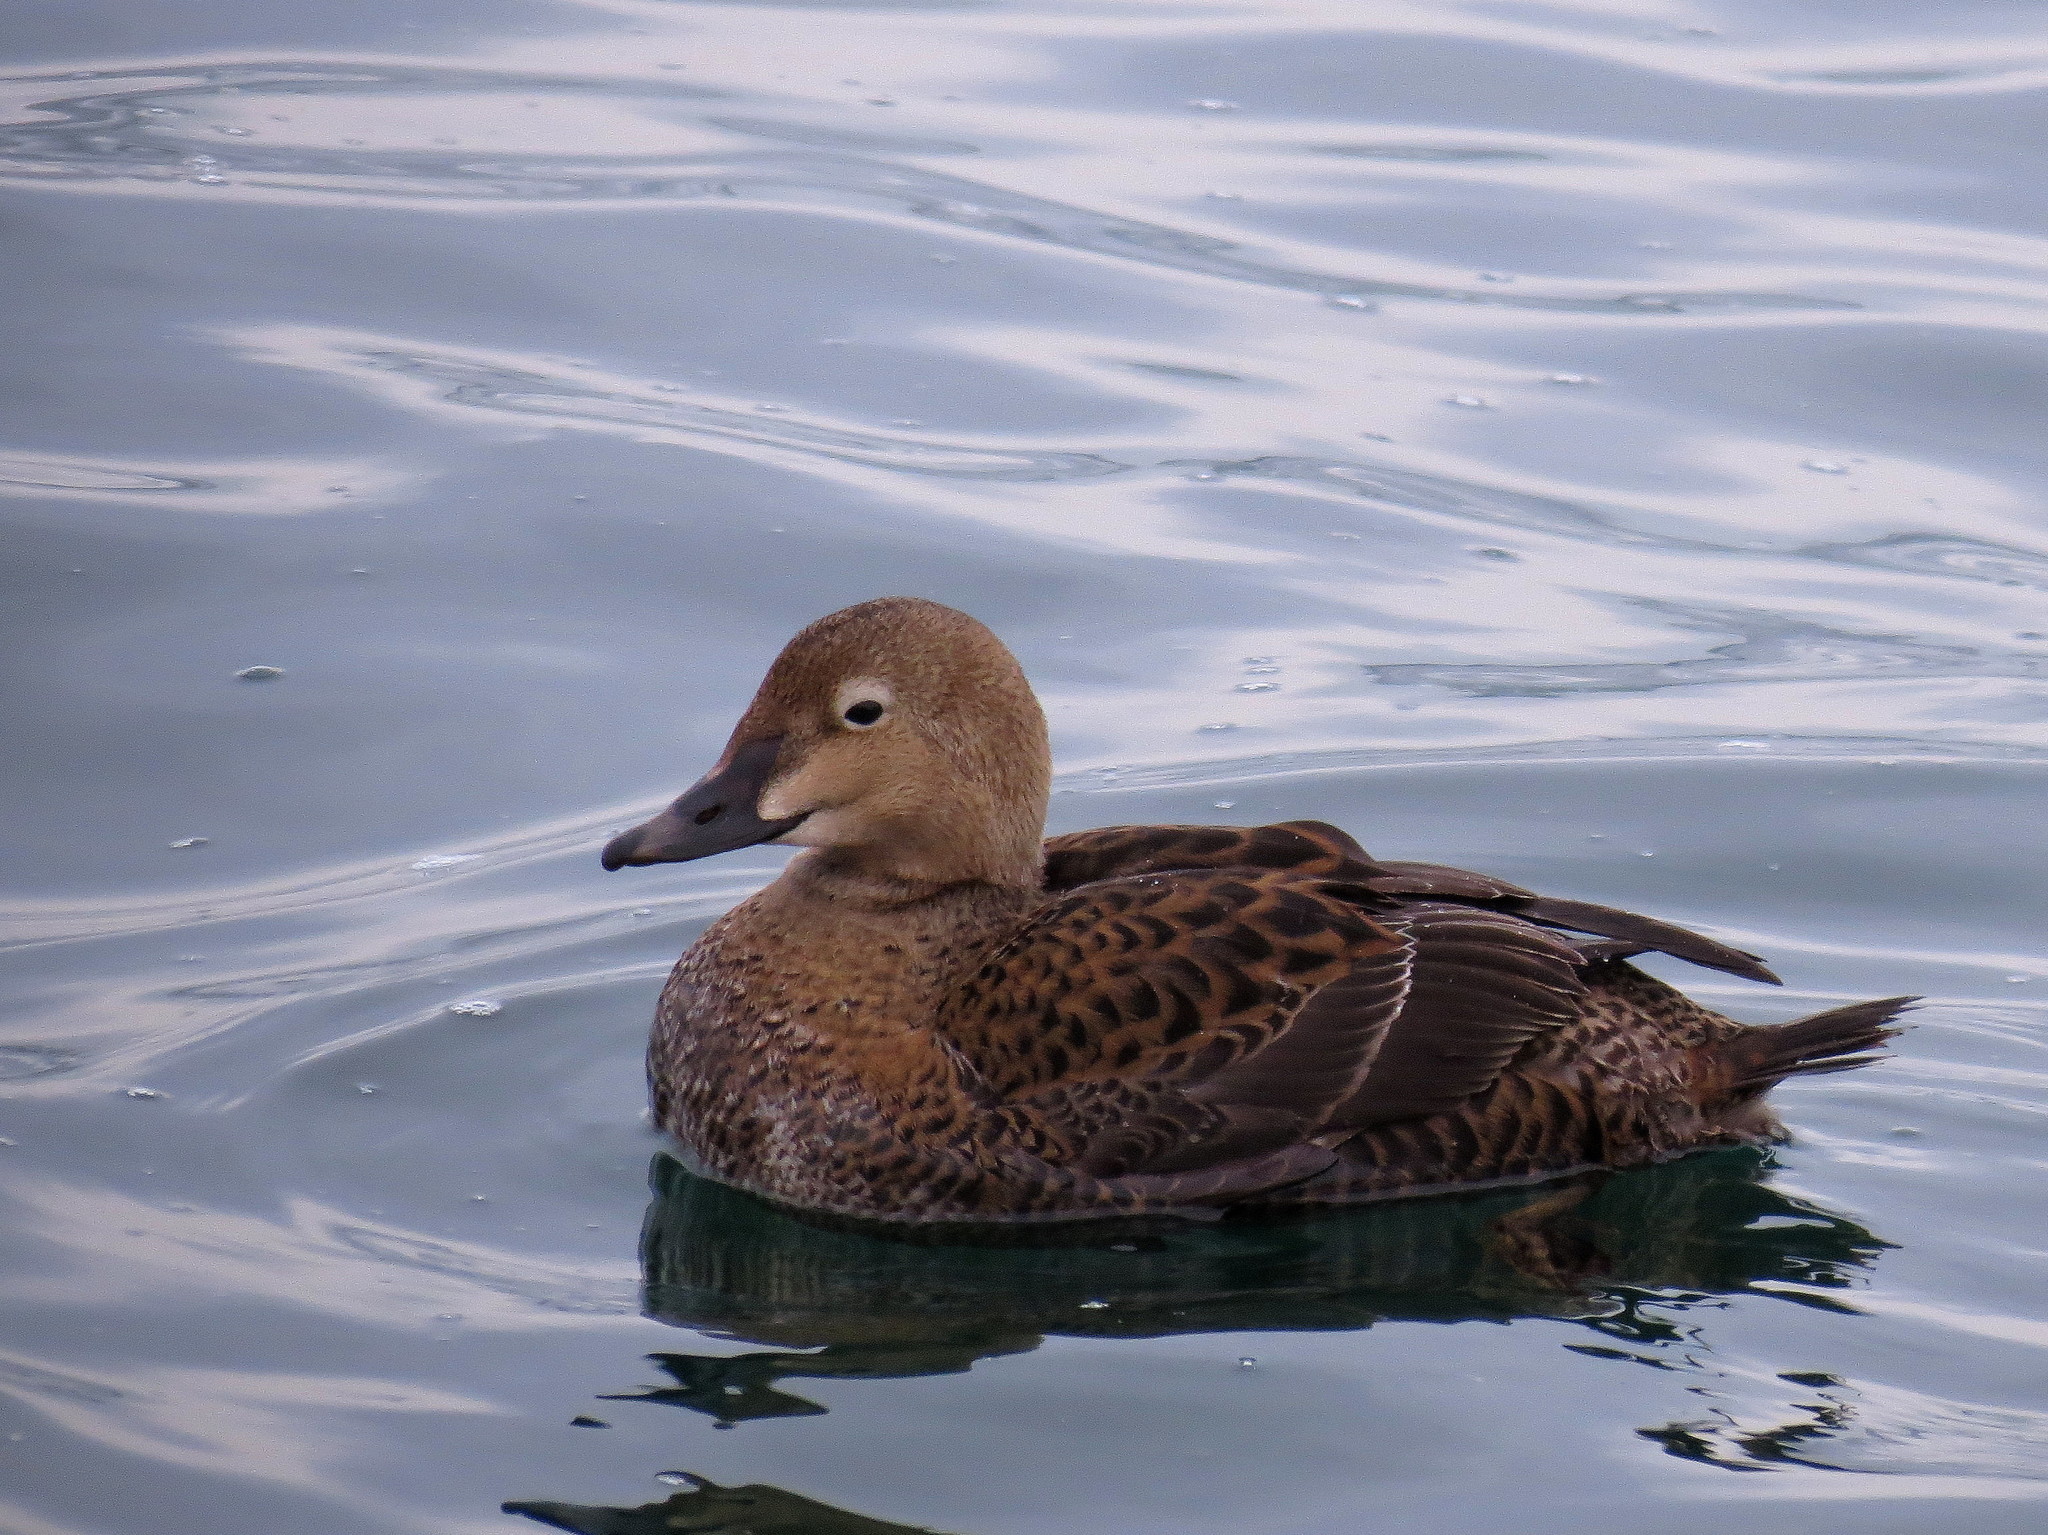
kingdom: Animalia
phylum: Chordata
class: Aves
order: Anseriformes
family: Anatidae
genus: Somateria
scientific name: Somateria spectabilis
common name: King eider
